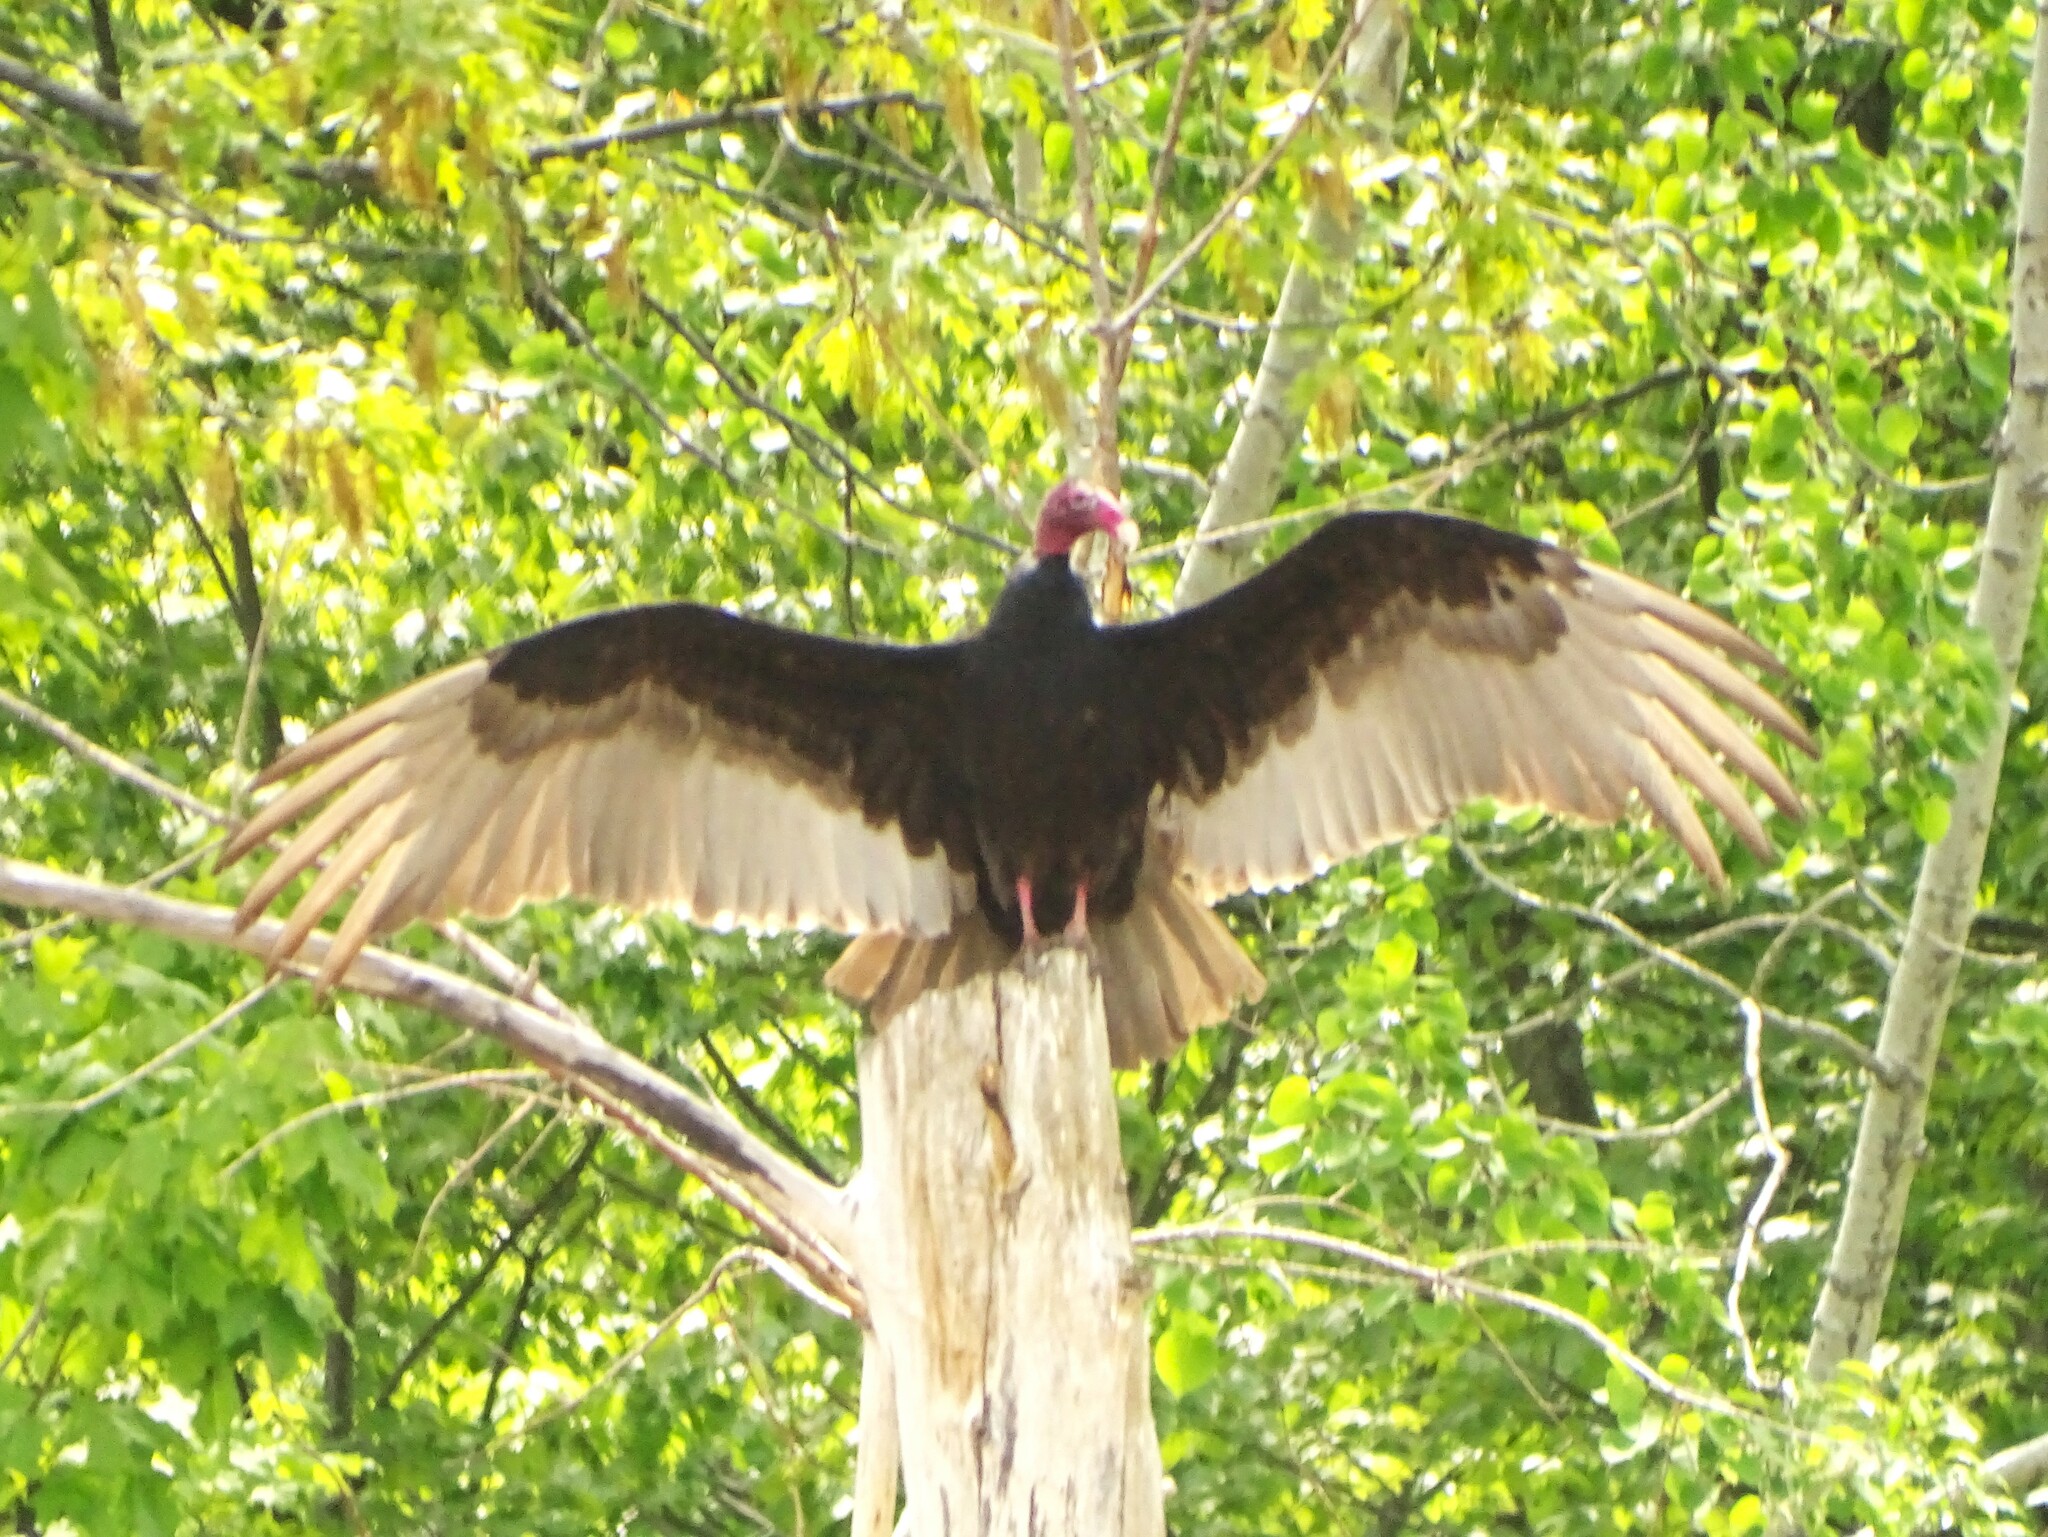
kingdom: Animalia
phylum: Chordata
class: Aves
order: Accipitriformes
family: Cathartidae
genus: Cathartes
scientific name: Cathartes aura
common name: Turkey vulture
